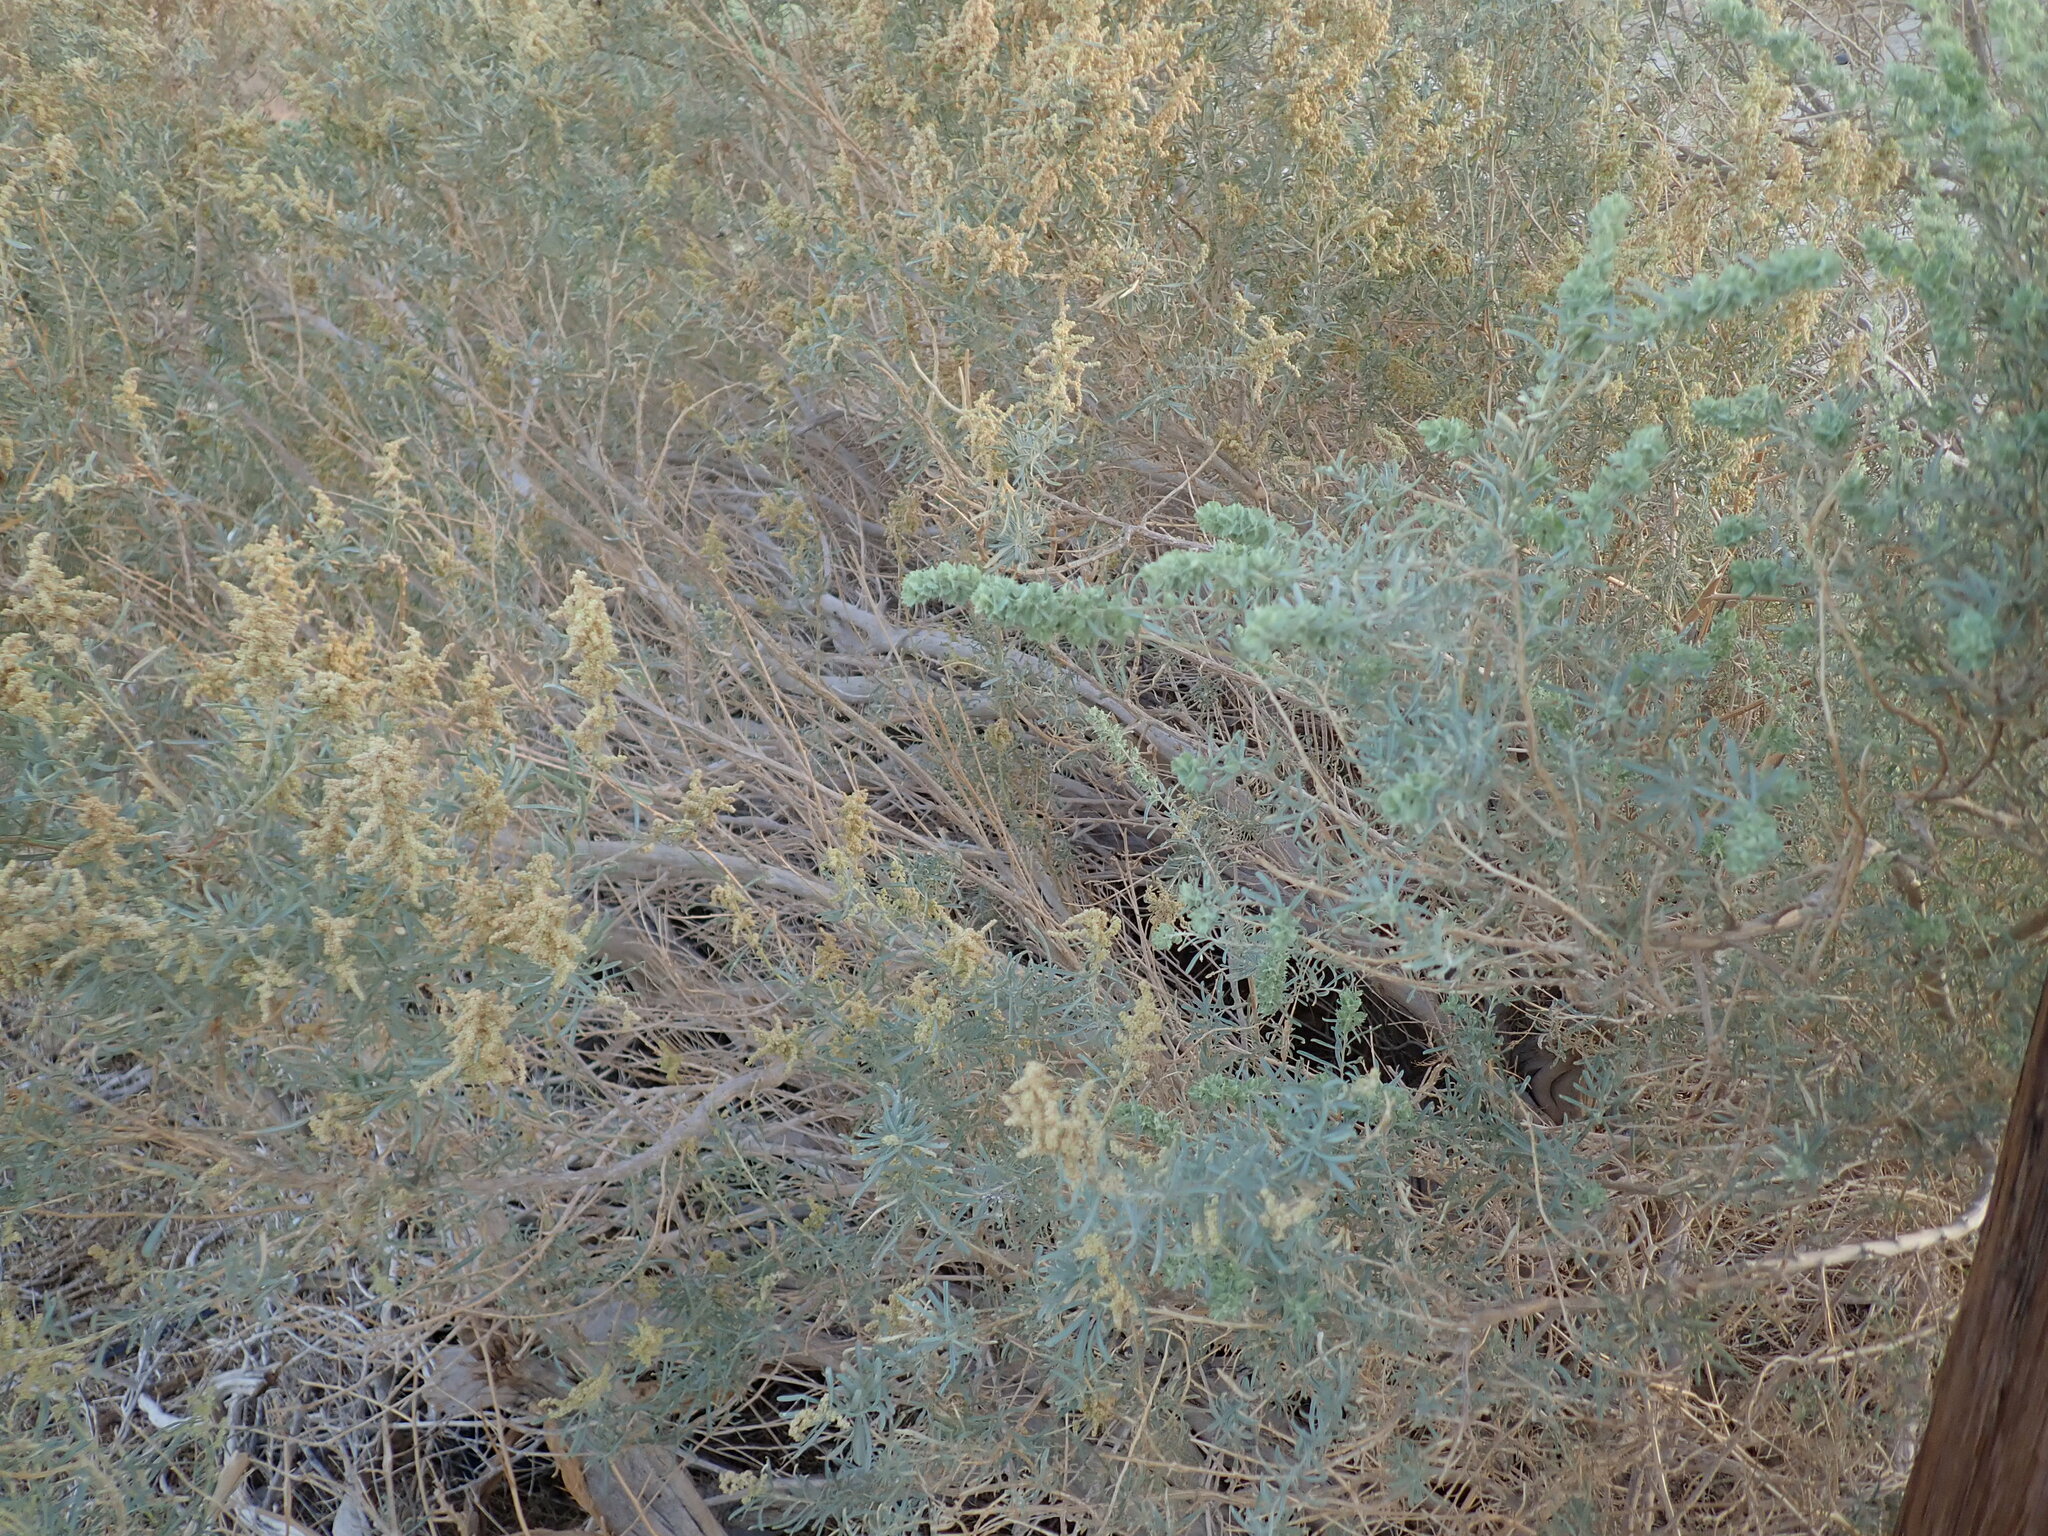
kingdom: Plantae
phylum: Tracheophyta
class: Magnoliopsida
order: Caryophyllales
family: Amaranthaceae
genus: Atriplex
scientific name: Atriplex canescens
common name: Four-wing saltbush
